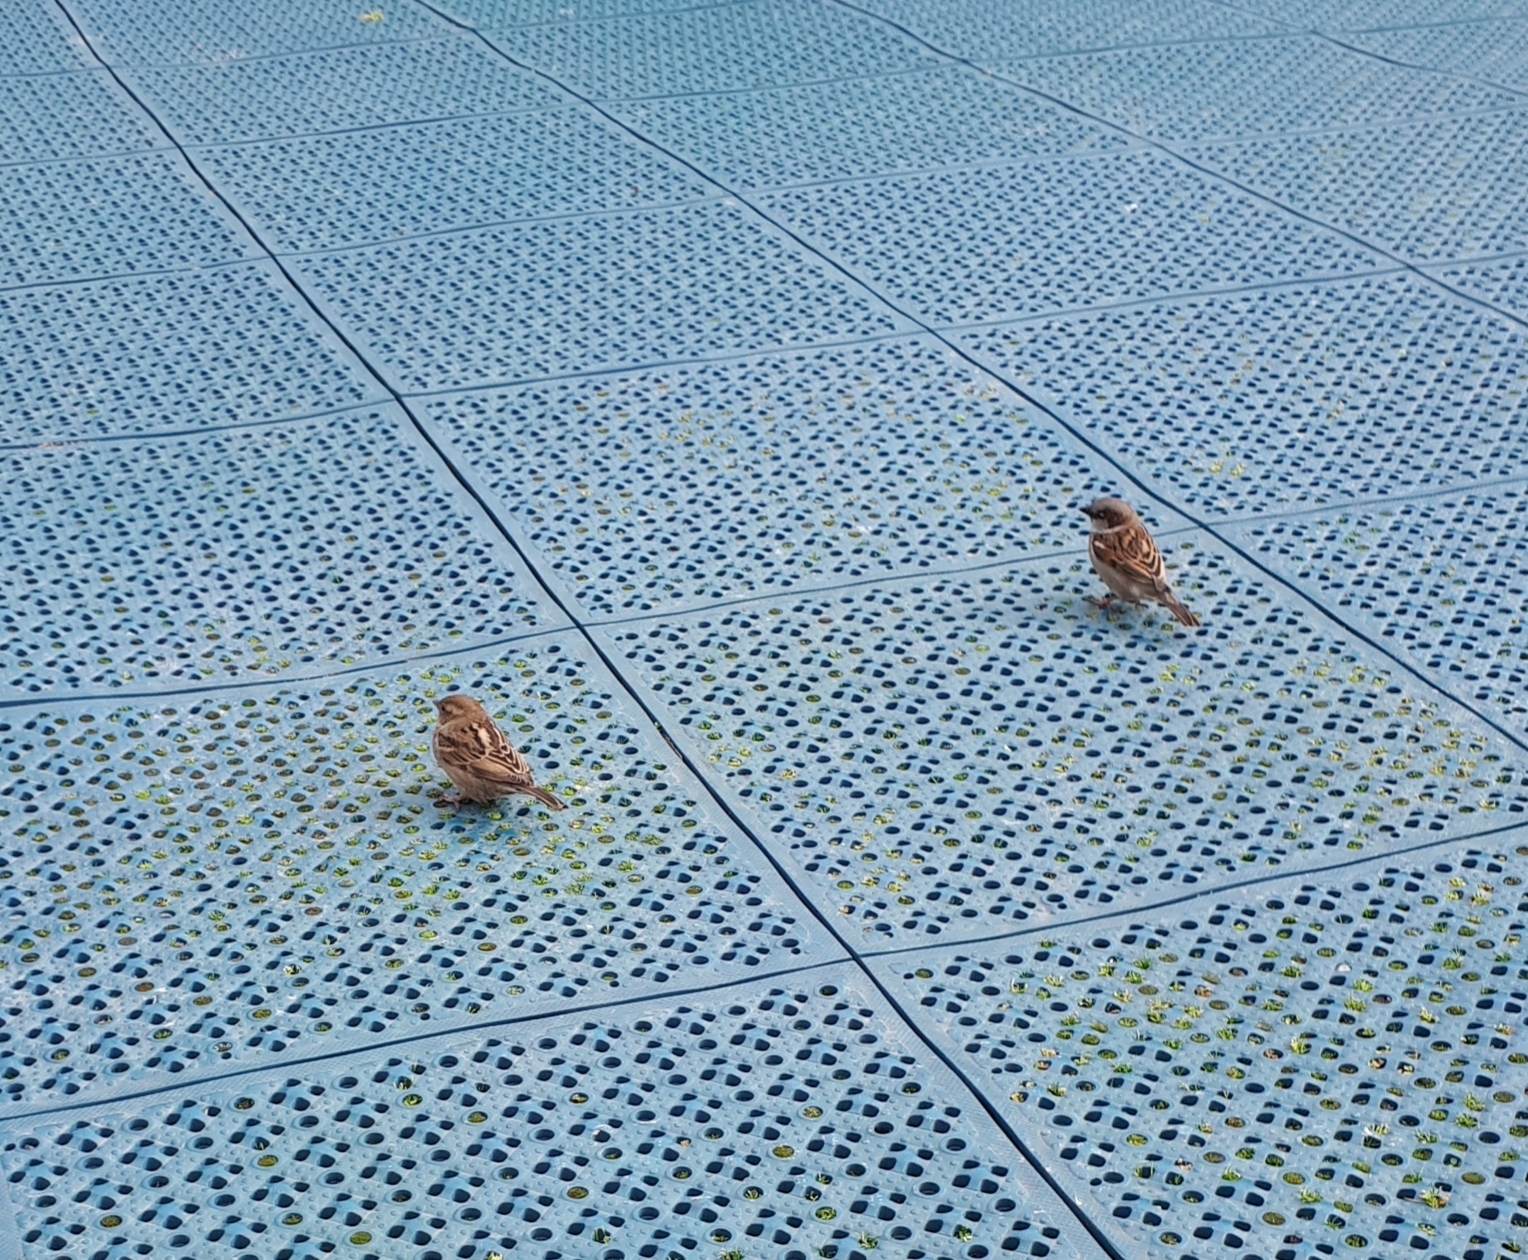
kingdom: Animalia
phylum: Chordata
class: Aves
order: Passeriformes
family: Passeridae
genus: Passer
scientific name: Passer domesticus
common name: House sparrow
